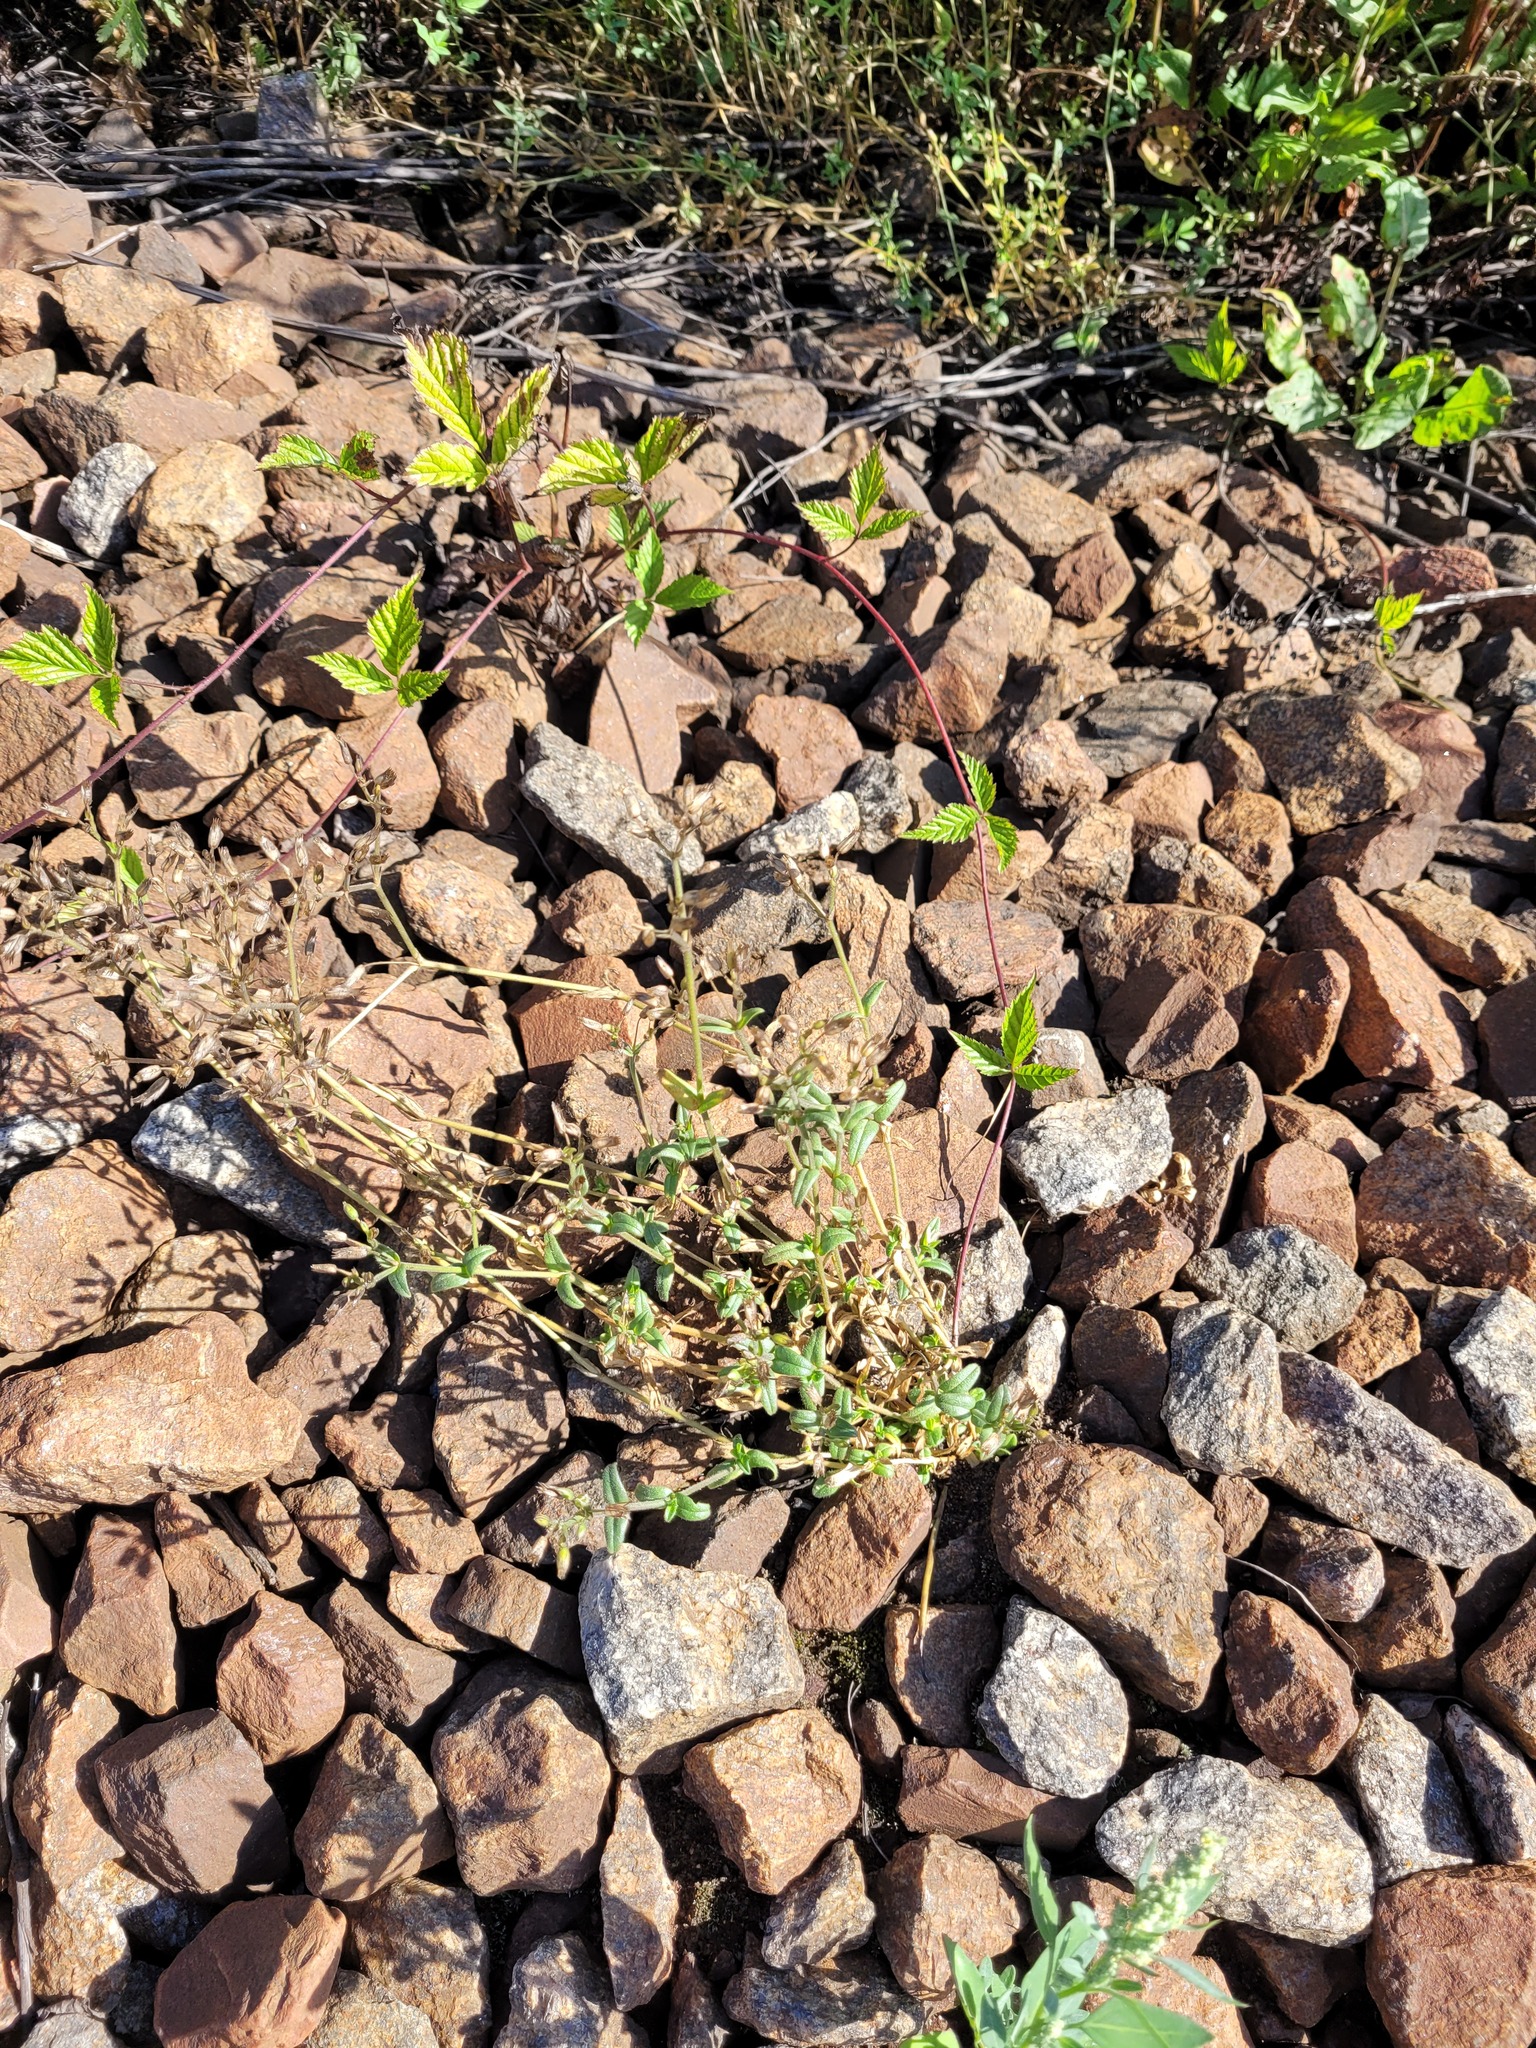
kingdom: Plantae
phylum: Tracheophyta
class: Magnoliopsida
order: Caryophyllales
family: Caryophyllaceae
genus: Cerastium
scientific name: Cerastium holosteoides
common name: Big chickweed
